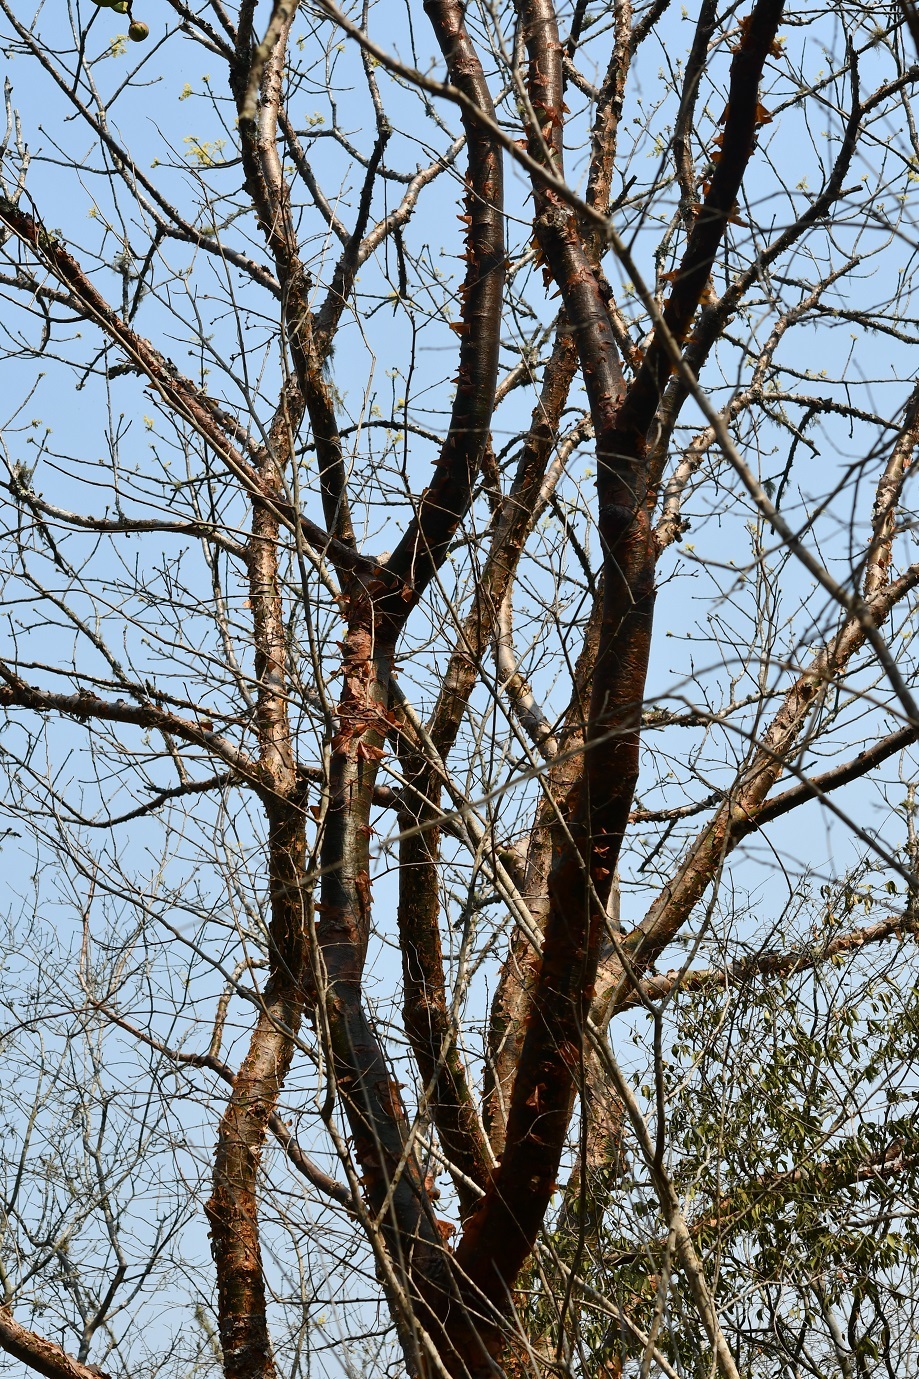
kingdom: Plantae
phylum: Tracheophyta
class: Magnoliopsida
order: Sapindales
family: Burseraceae
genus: Bursera
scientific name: Bursera simaruba
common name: Turpentine tree
